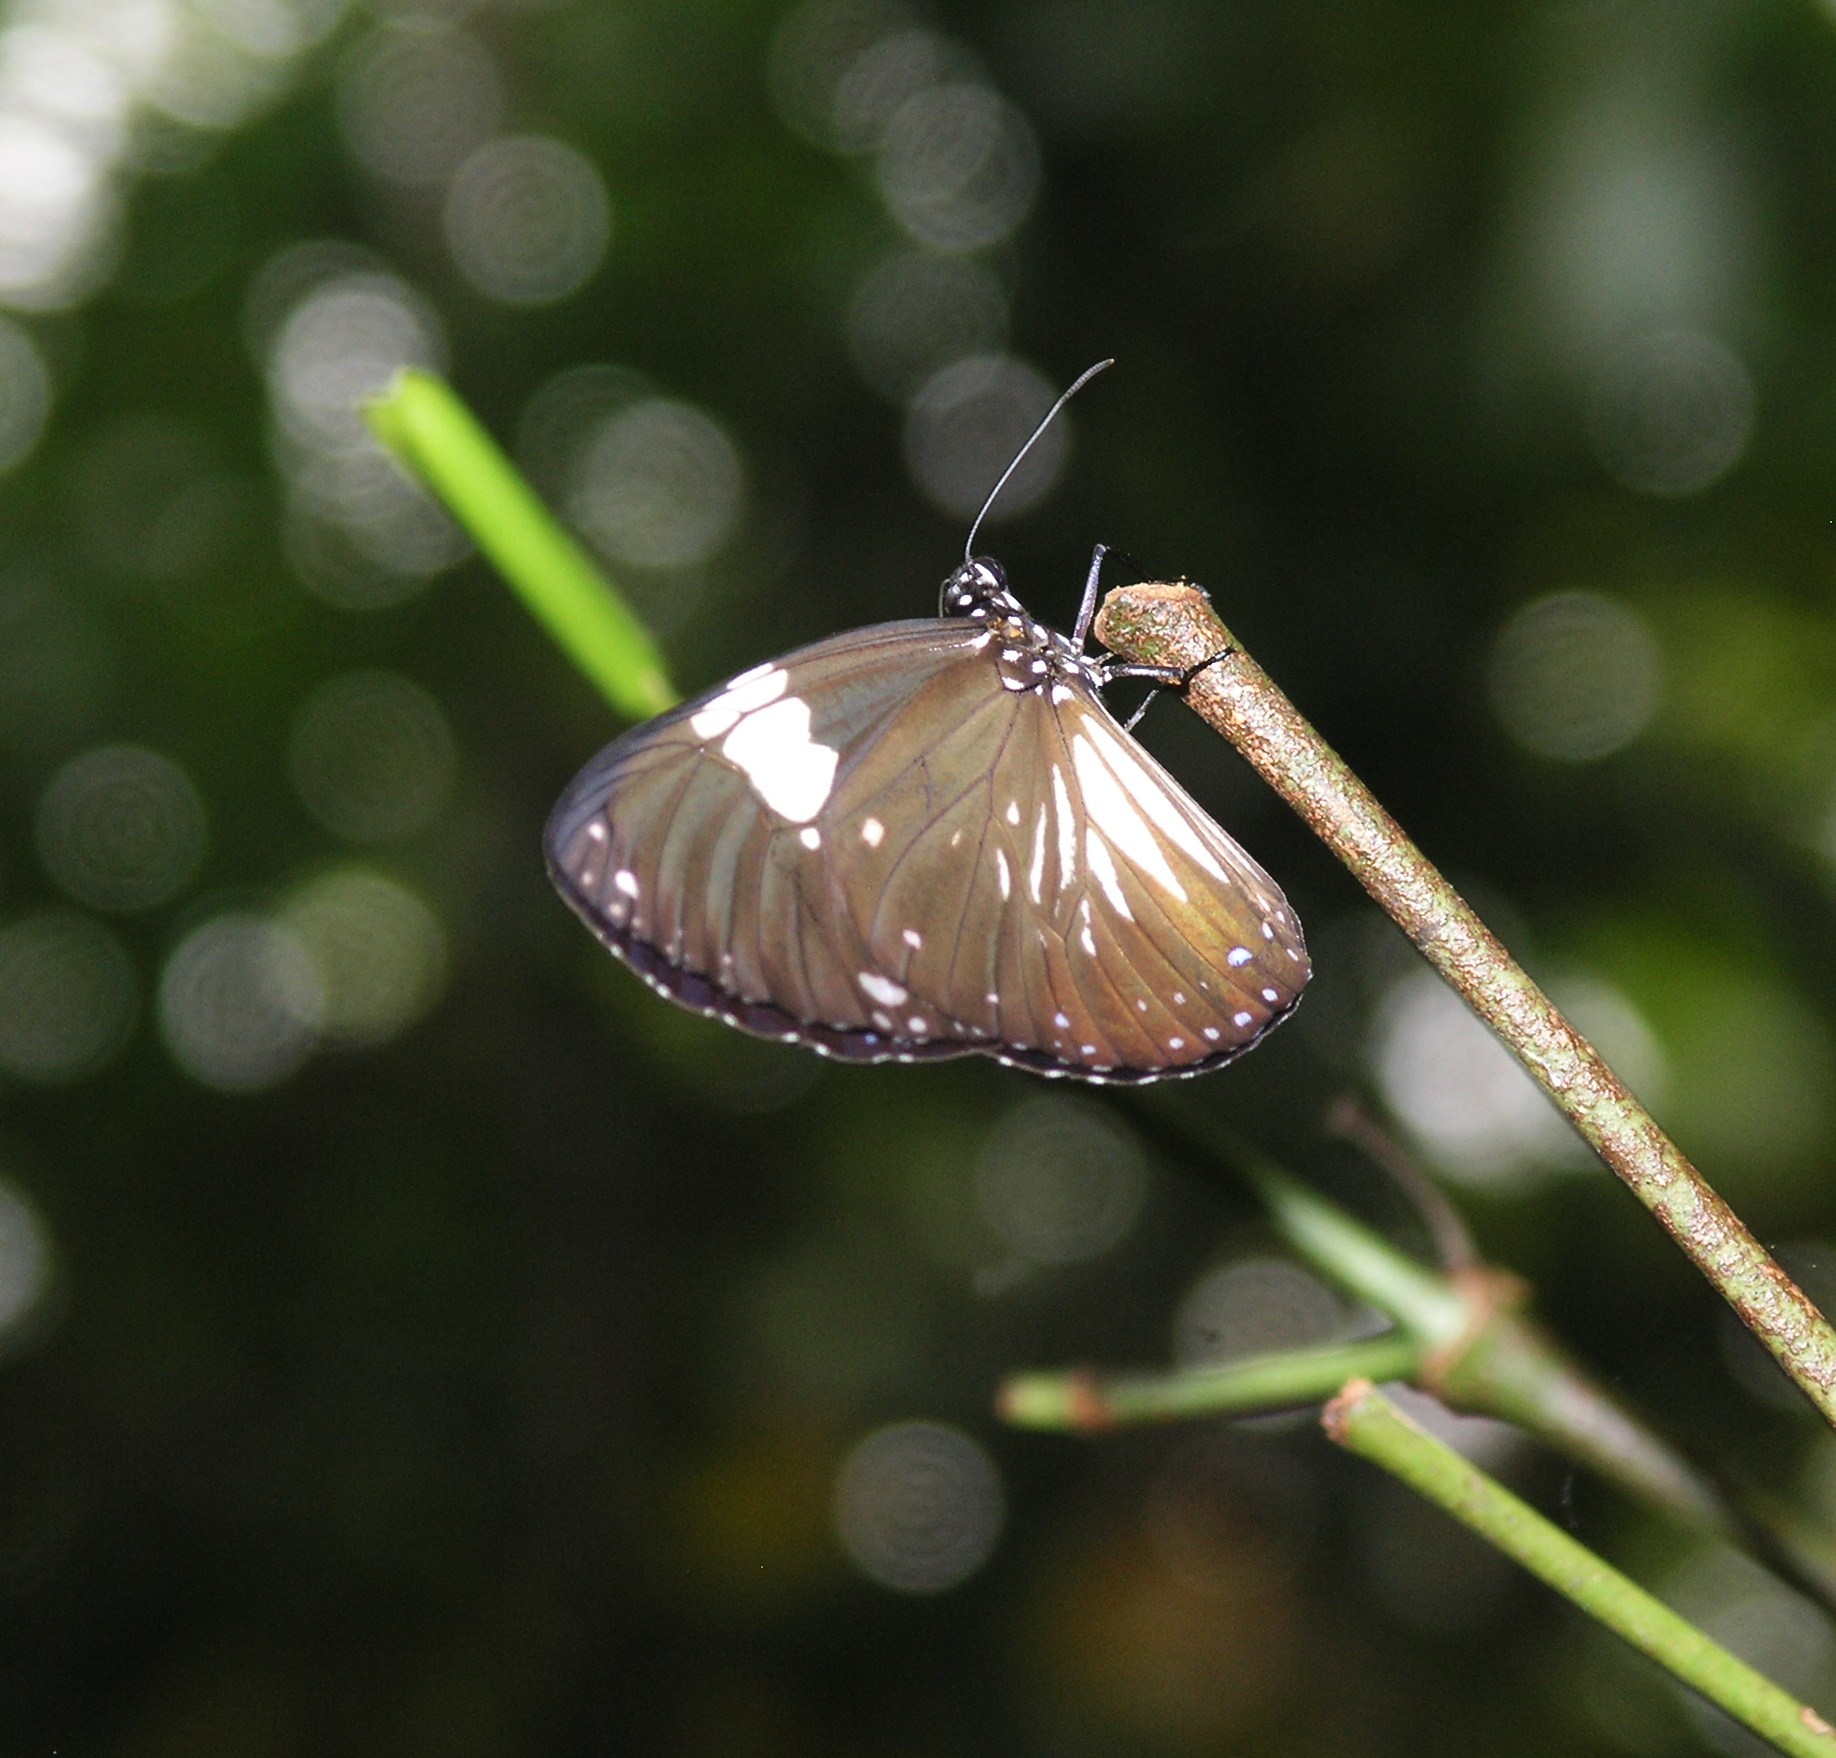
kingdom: Animalia
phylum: Arthropoda
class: Insecta
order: Lepidoptera
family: Nymphalidae
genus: Euploea
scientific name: Euploea radamanthus
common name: Magpie crow butterfly
